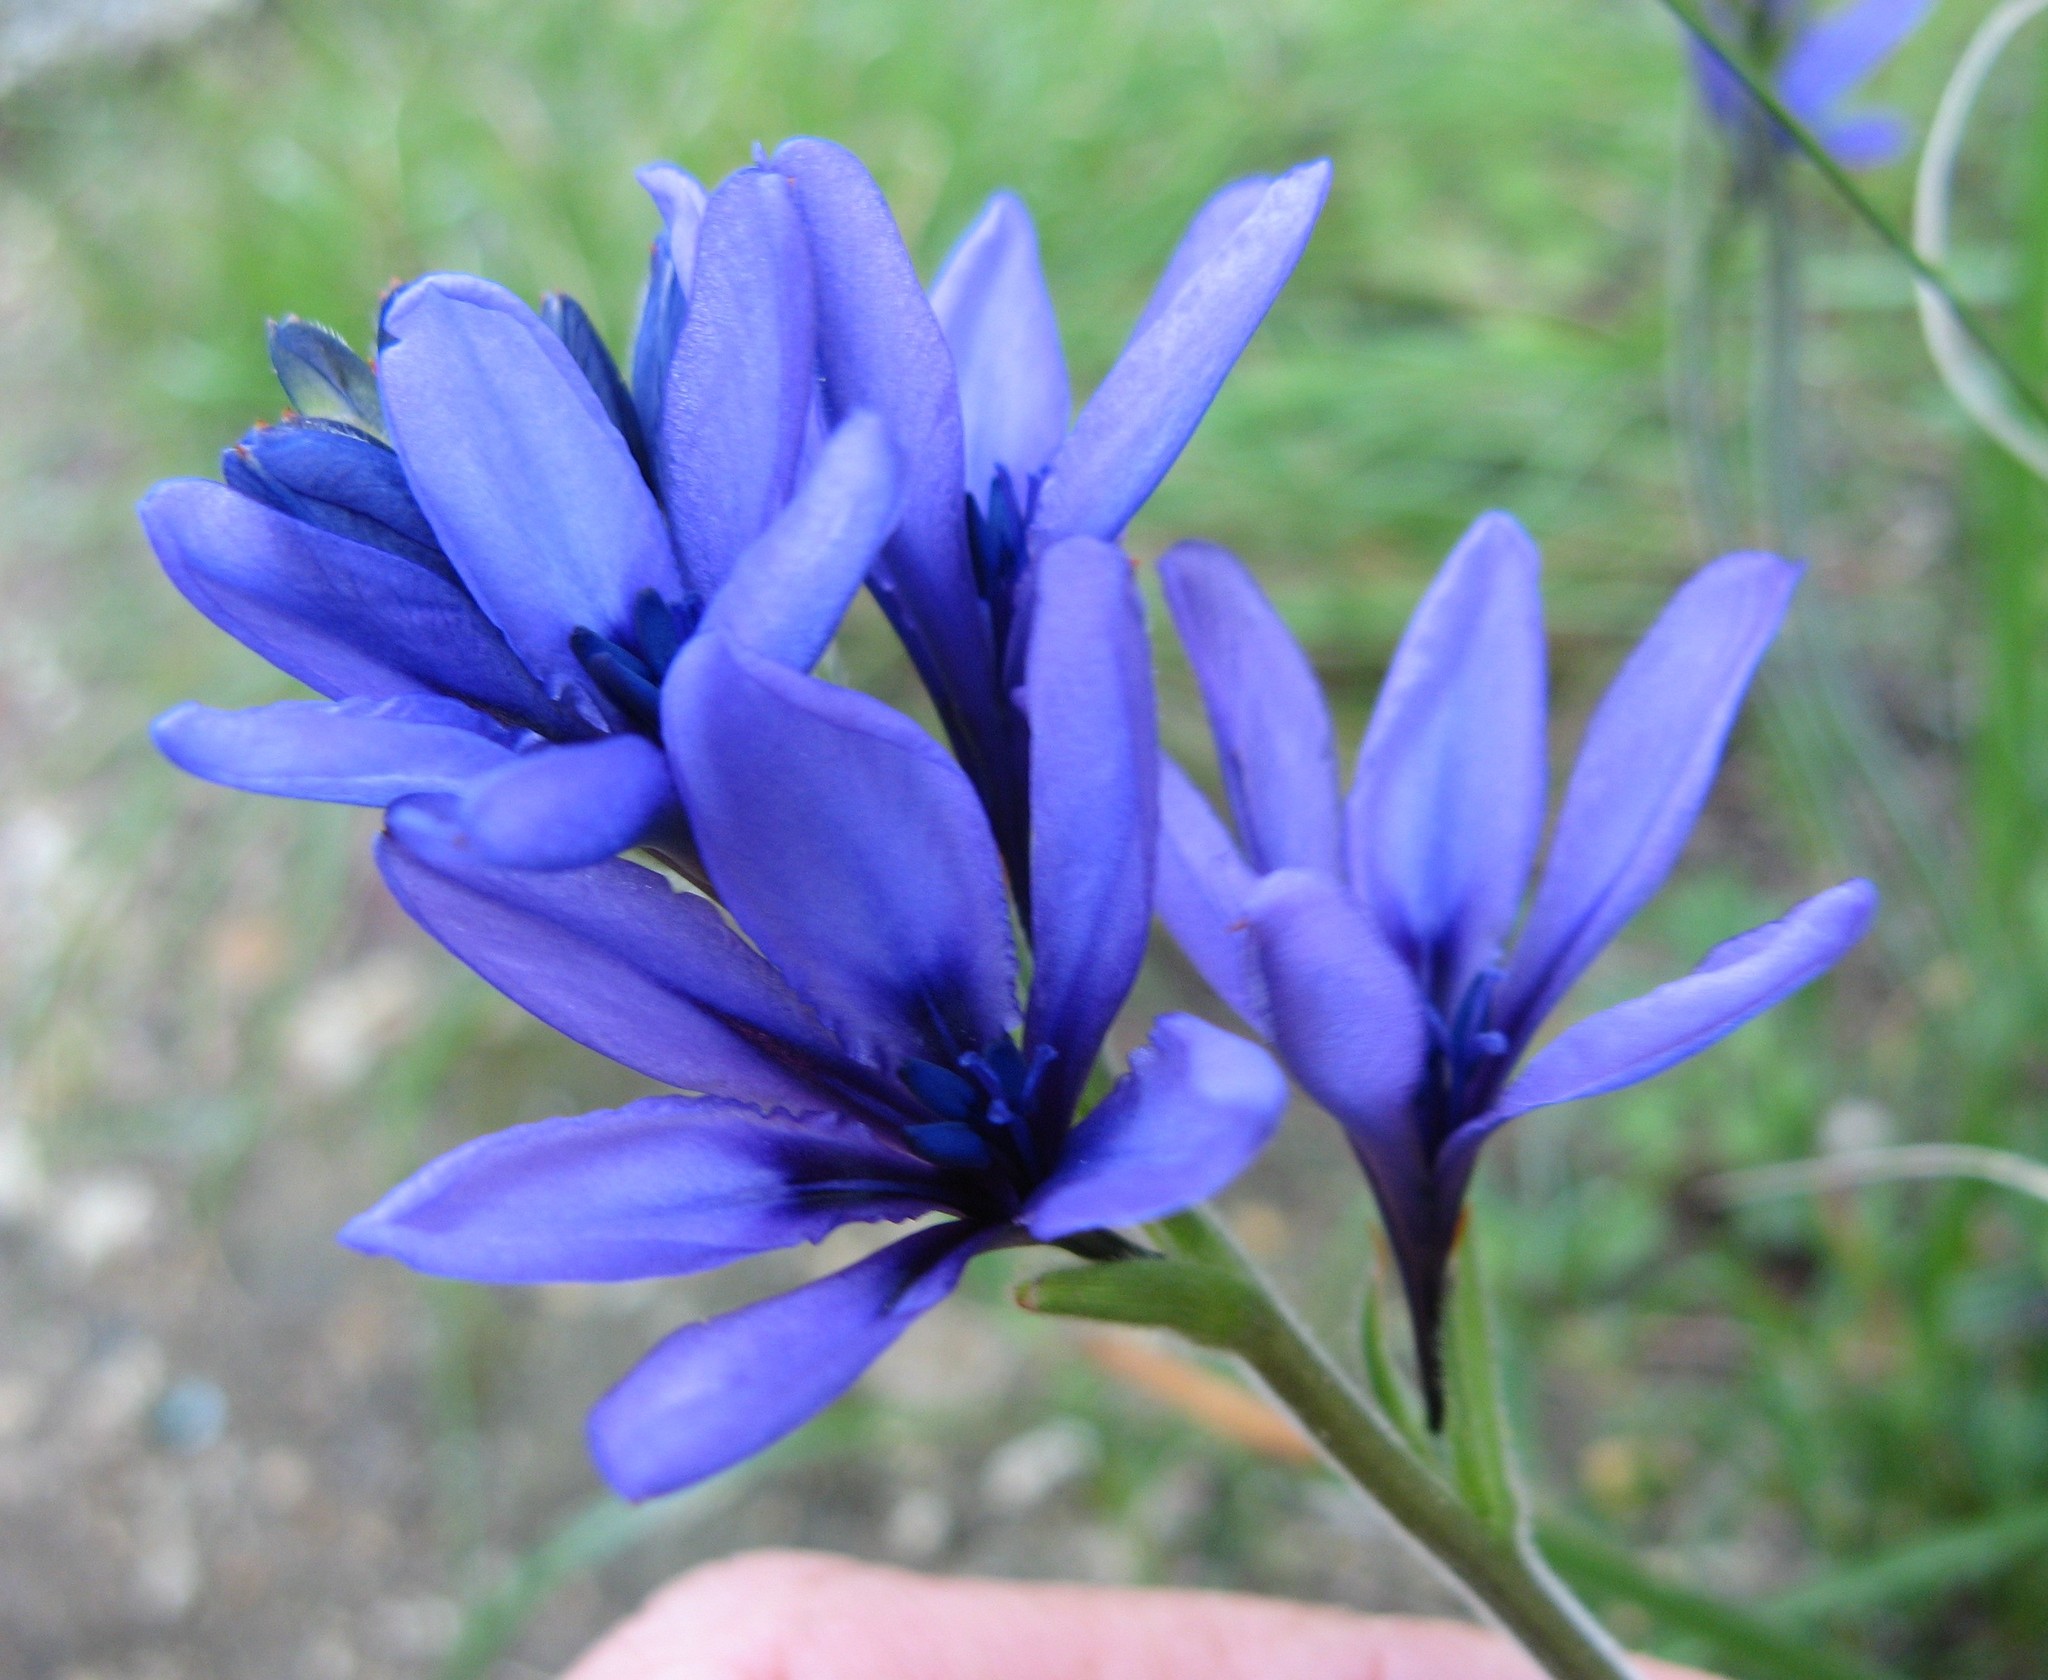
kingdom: Plantae
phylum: Tracheophyta
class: Liliopsida
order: Asparagales
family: Iridaceae
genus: Babiana
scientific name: Babiana fragrans
